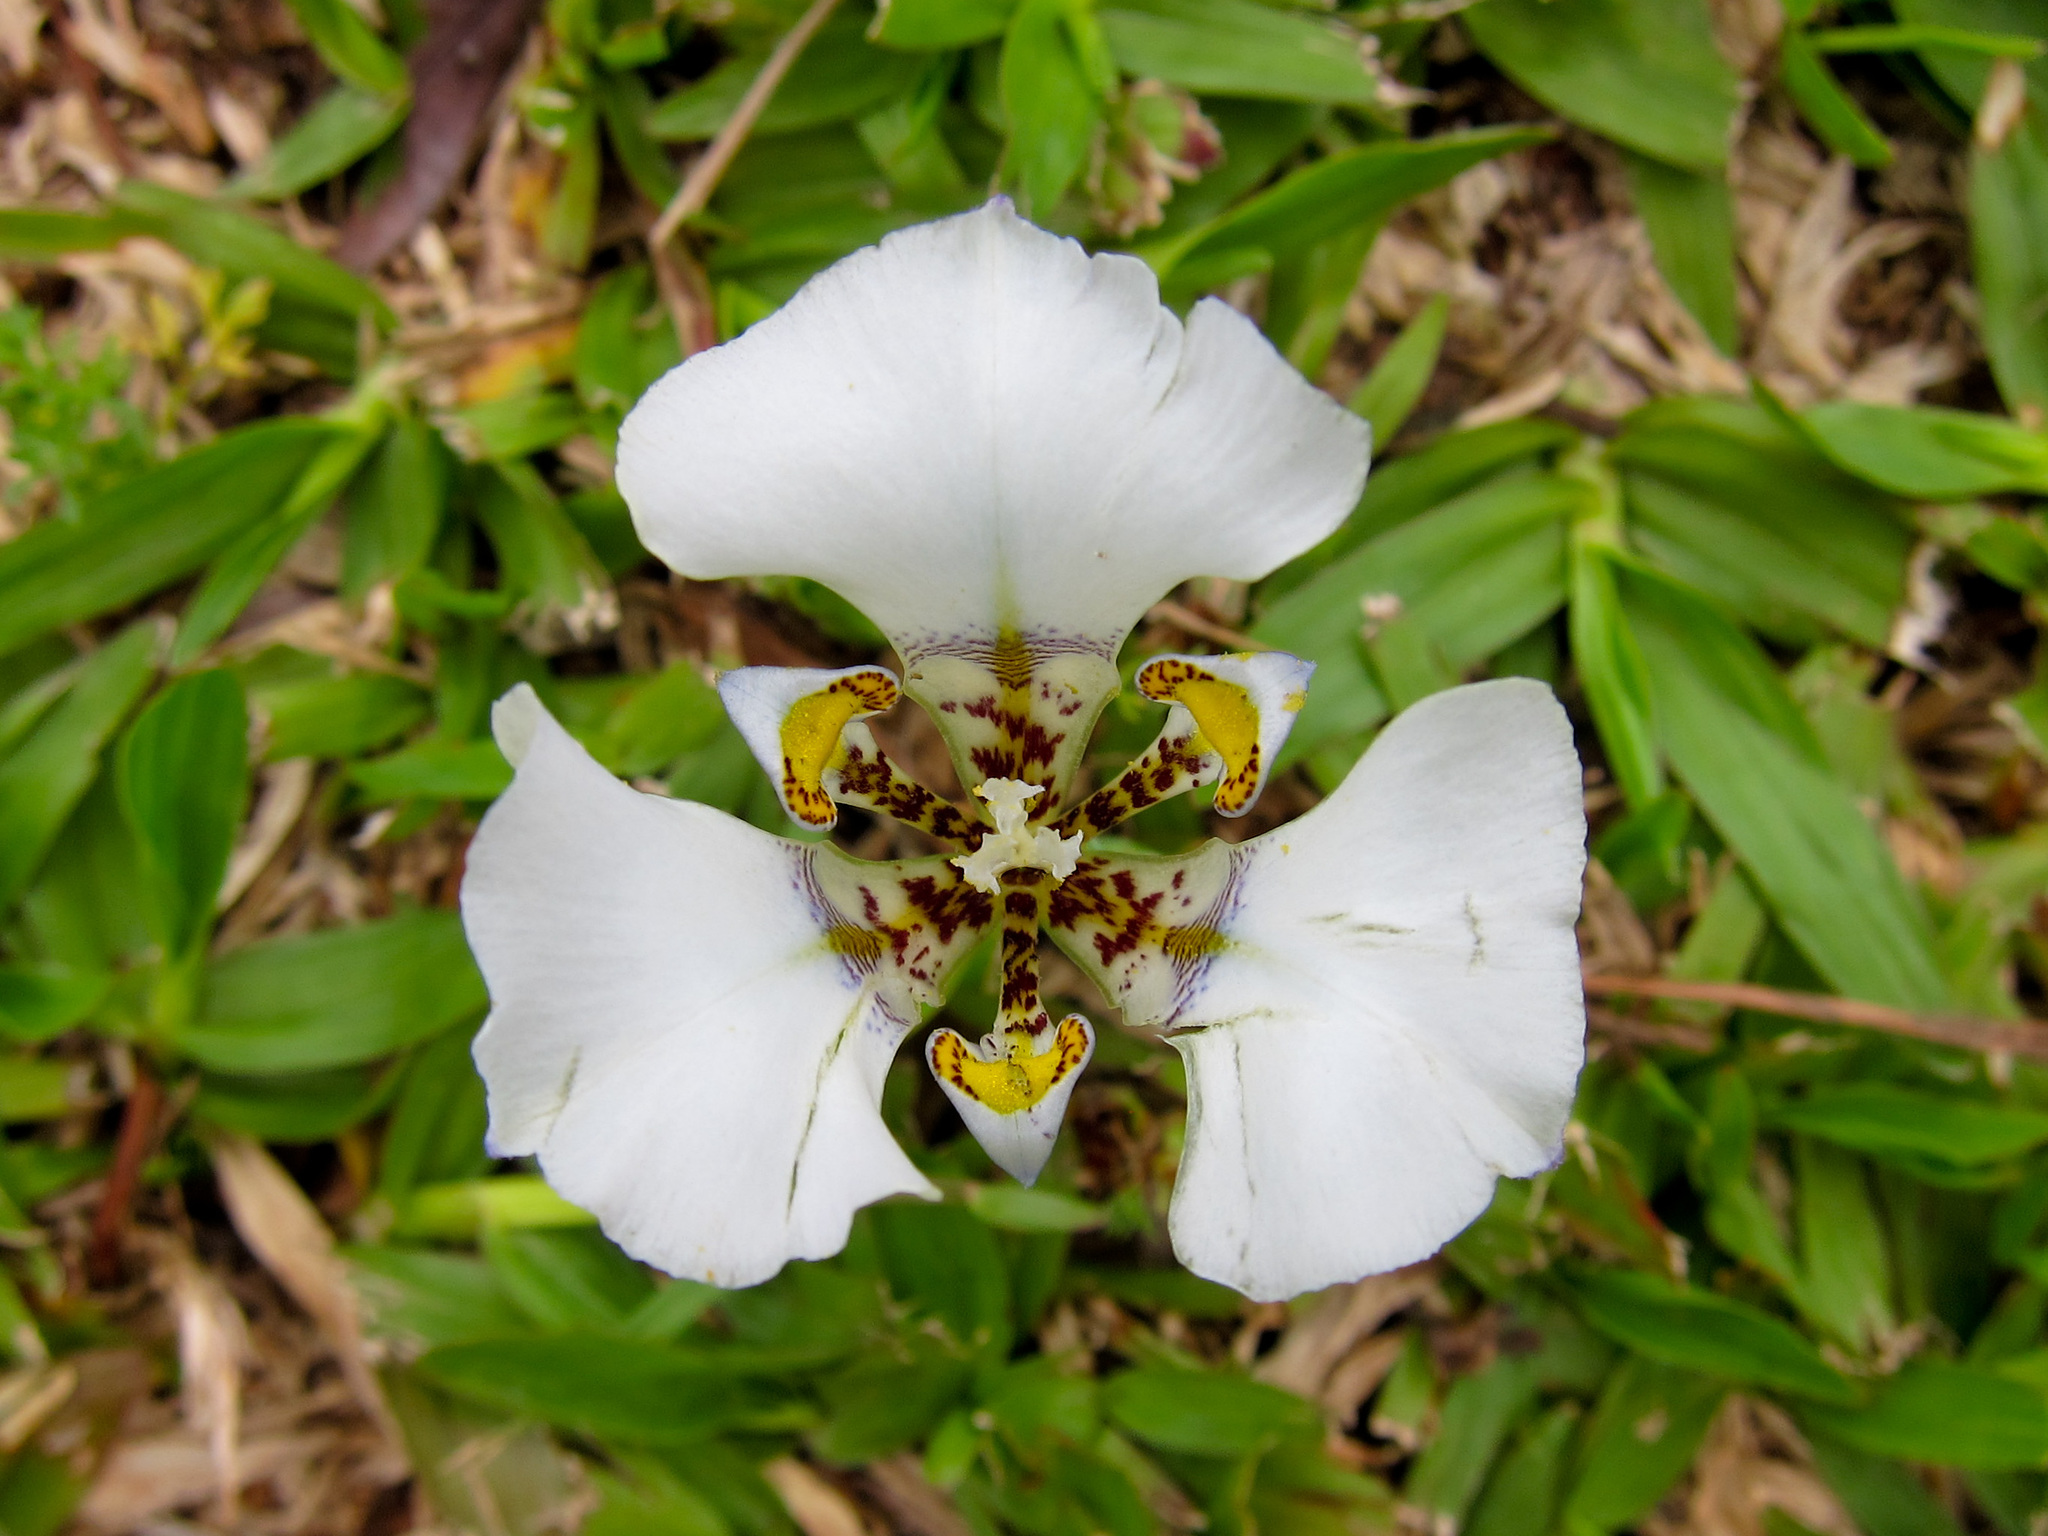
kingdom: Plantae
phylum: Tracheophyta
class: Liliopsida
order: Asparagales
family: Iridaceae
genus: Cypella
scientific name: Cypella opalina
